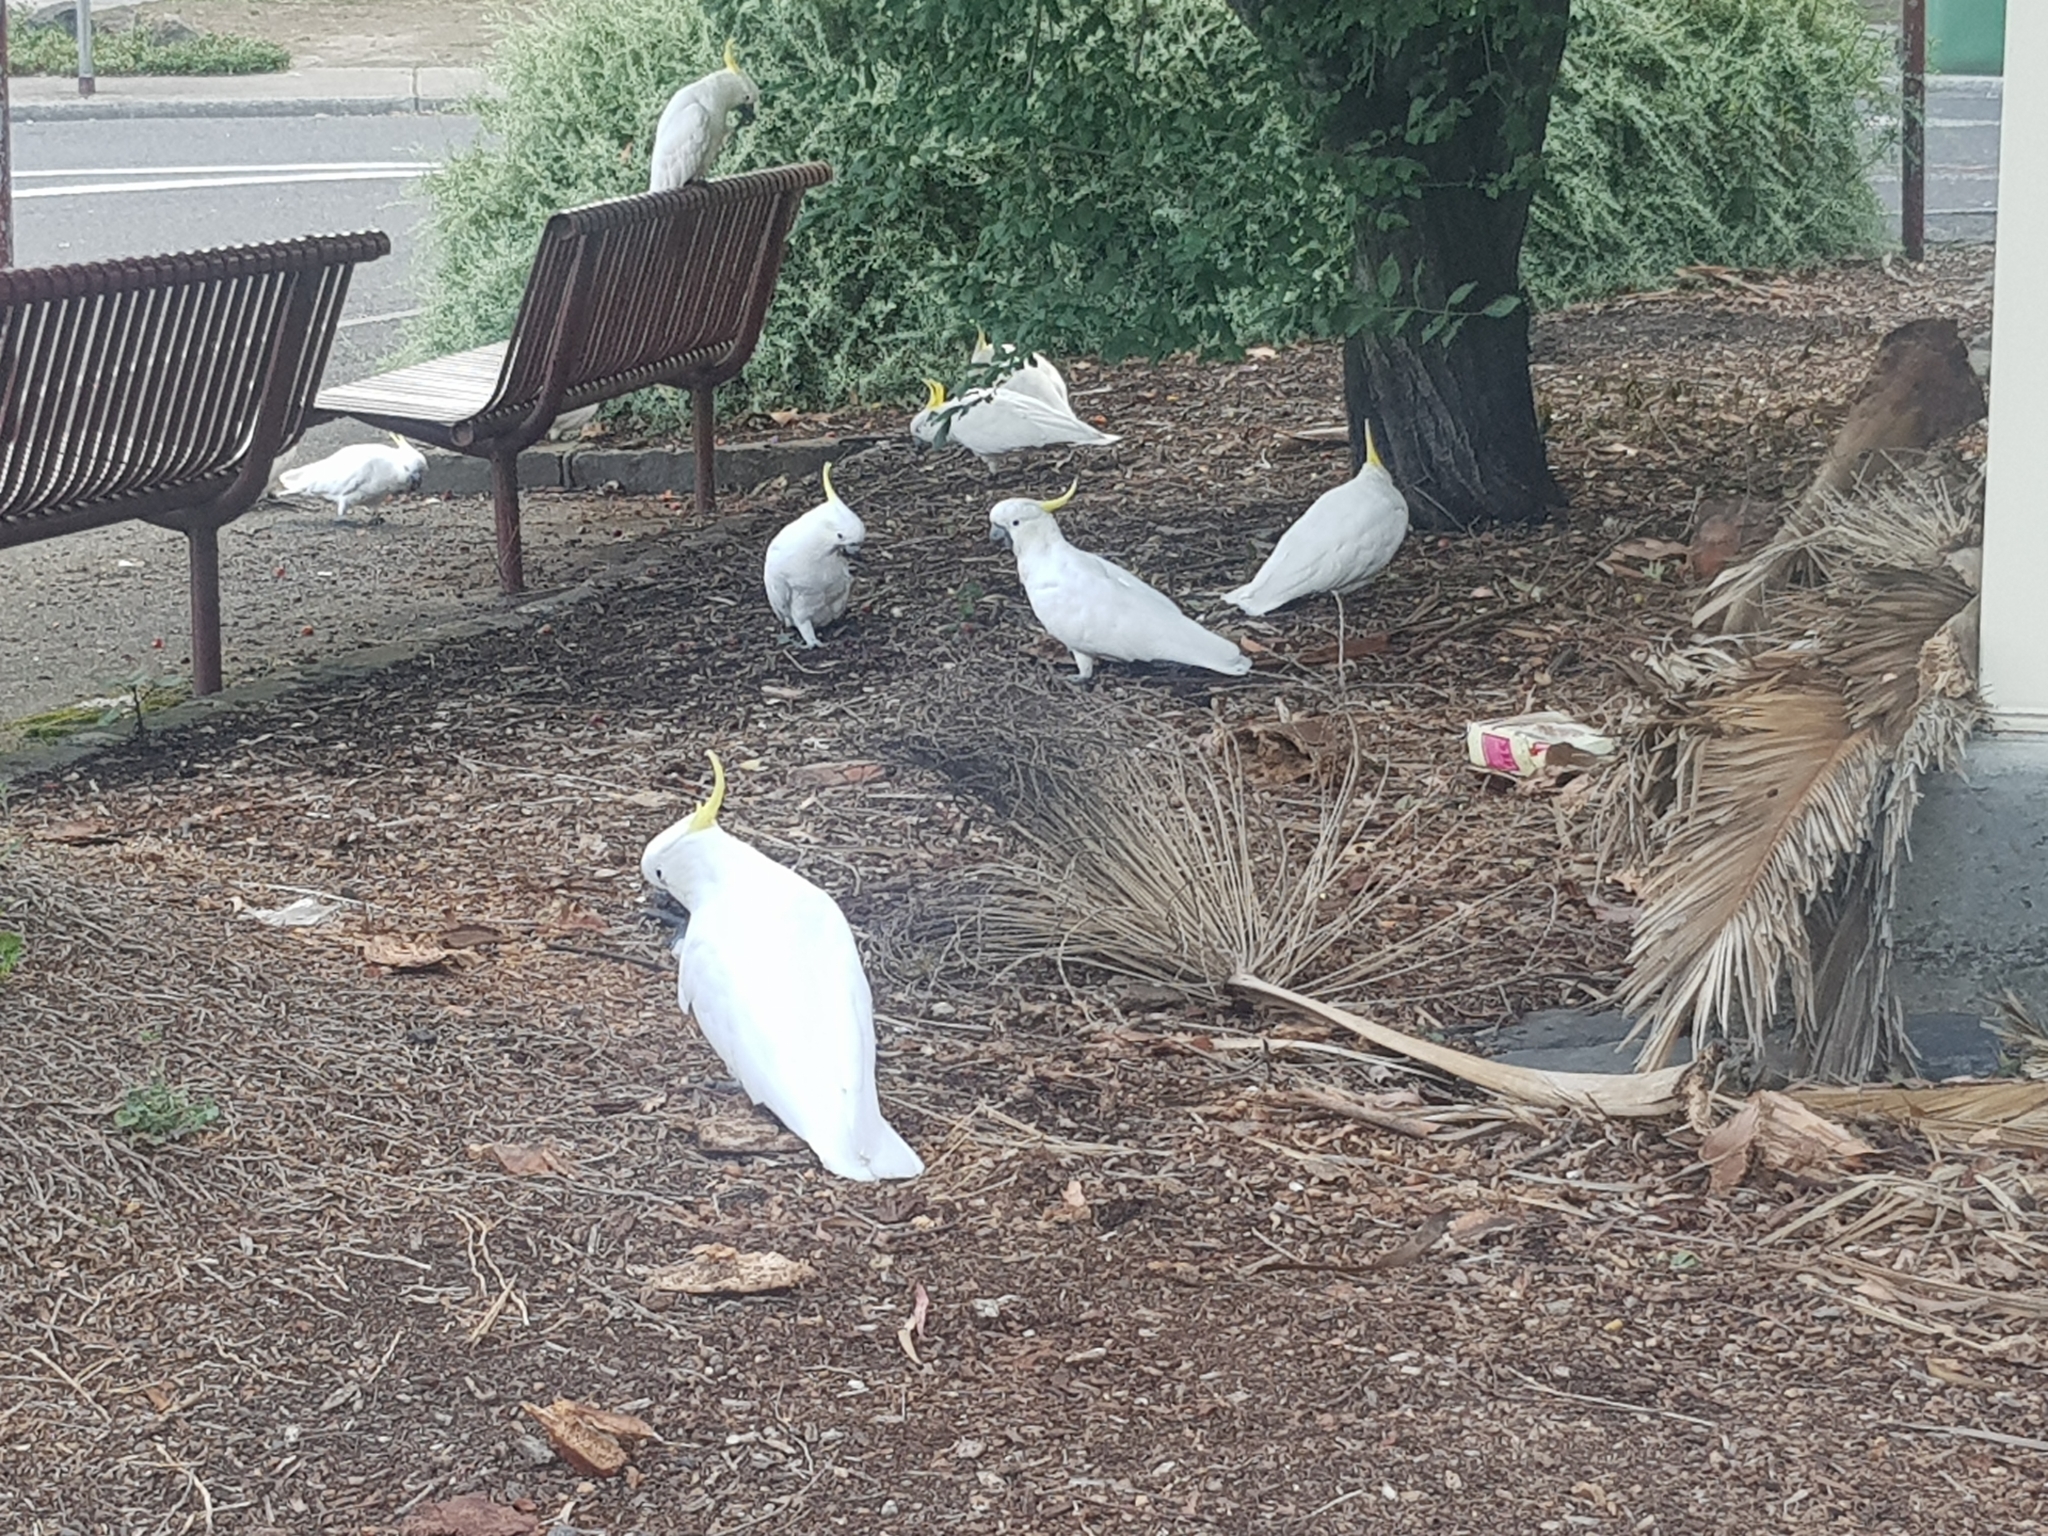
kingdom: Animalia
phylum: Chordata
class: Aves
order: Psittaciformes
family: Psittacidae
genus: Cacatua
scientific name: Cacatua galerita
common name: Sulphur-crested cockatoo
